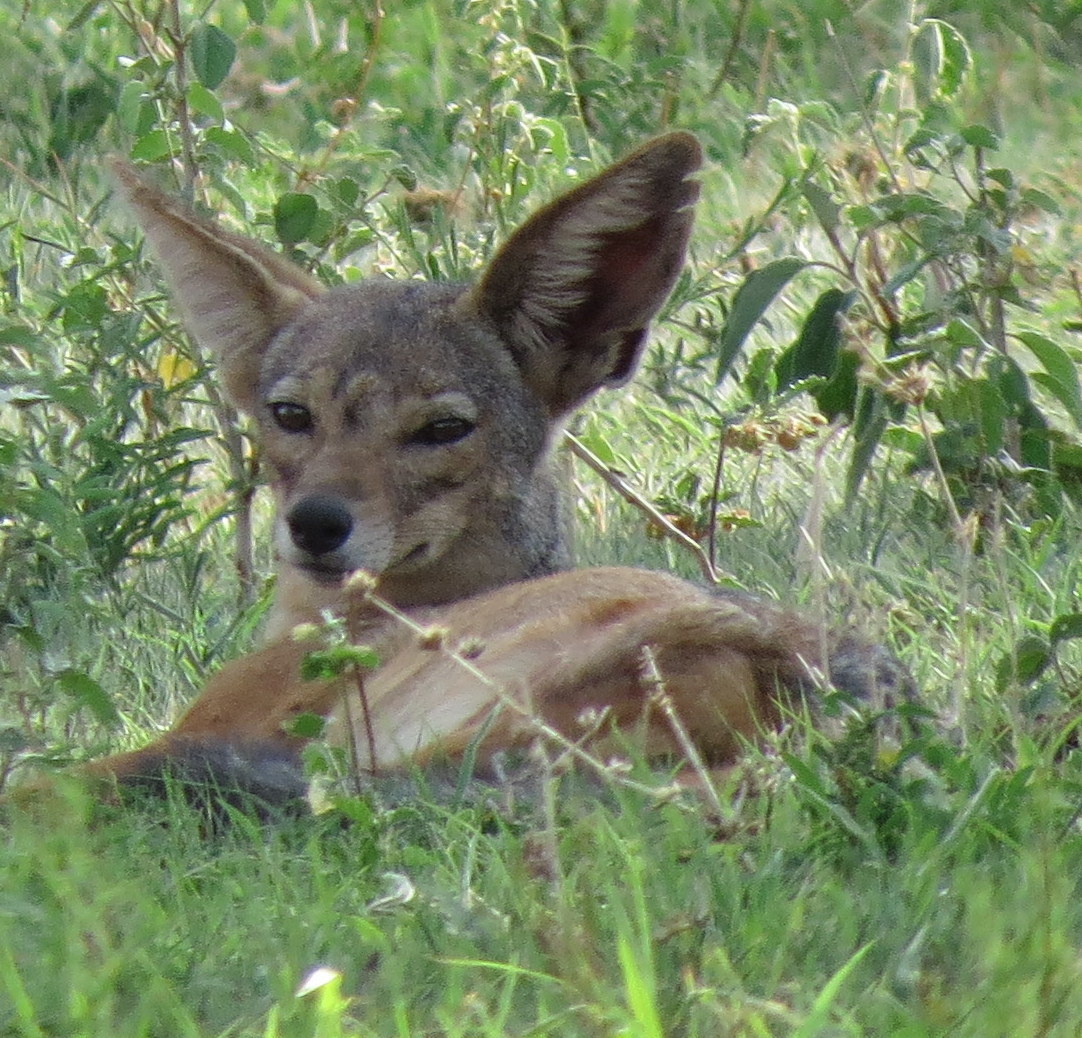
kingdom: Animalia
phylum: Chordata
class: Mammalia
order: Carnivora
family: Canidae
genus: Lupulella
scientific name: Lupulella
